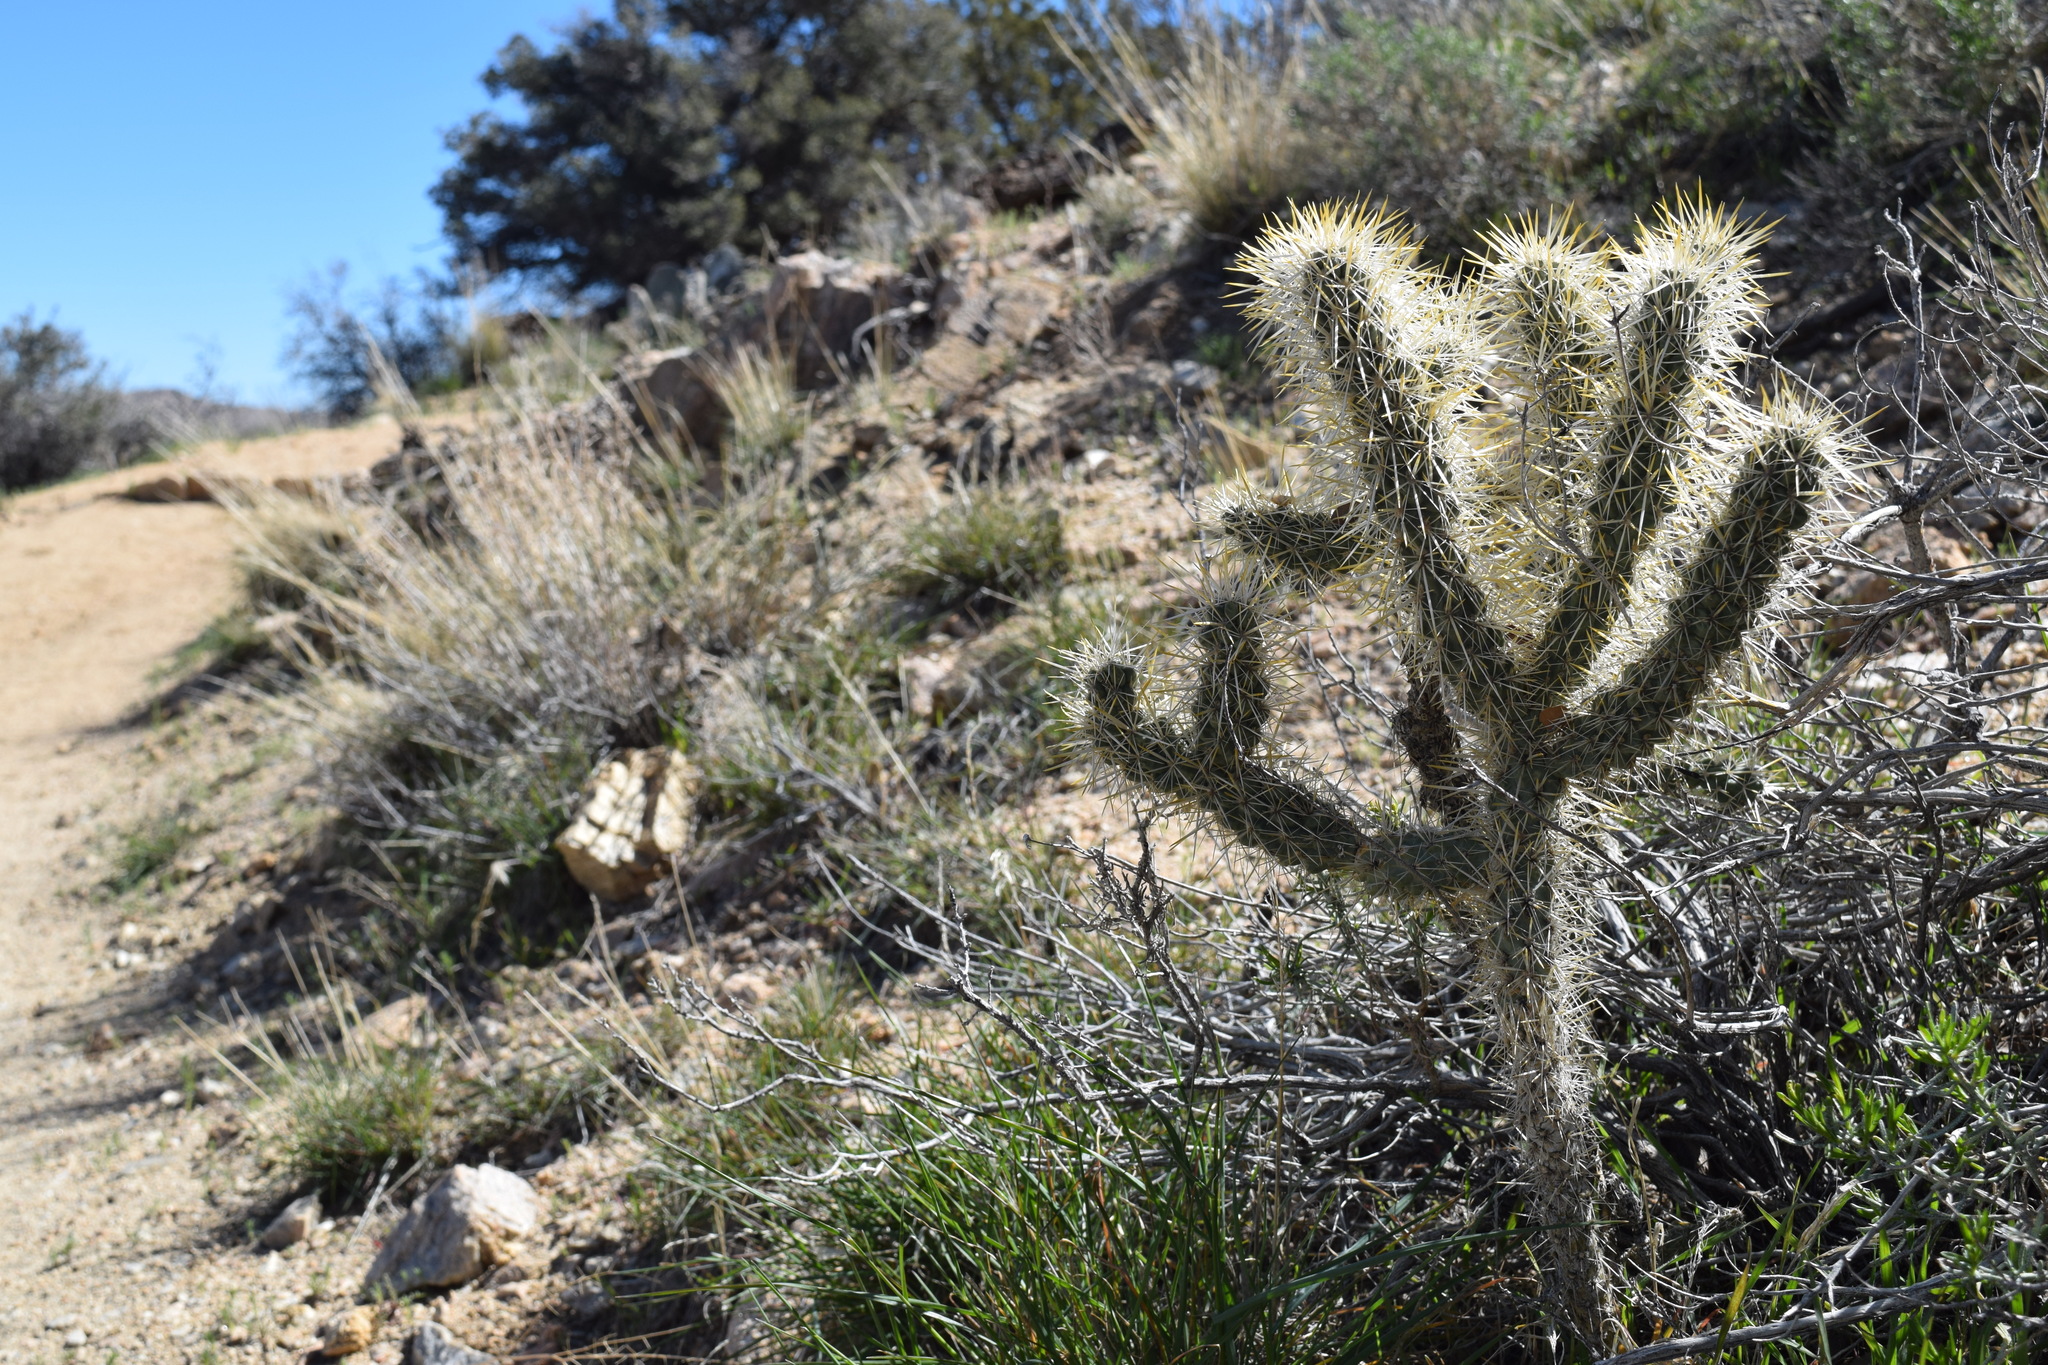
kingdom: Plantae
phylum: Tracheophyta
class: Magnoliopsida
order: Caryophyllales
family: Cactaceae
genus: Cylindropuntia
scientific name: Cylindropuntia echinocarpa
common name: Ground cholla
